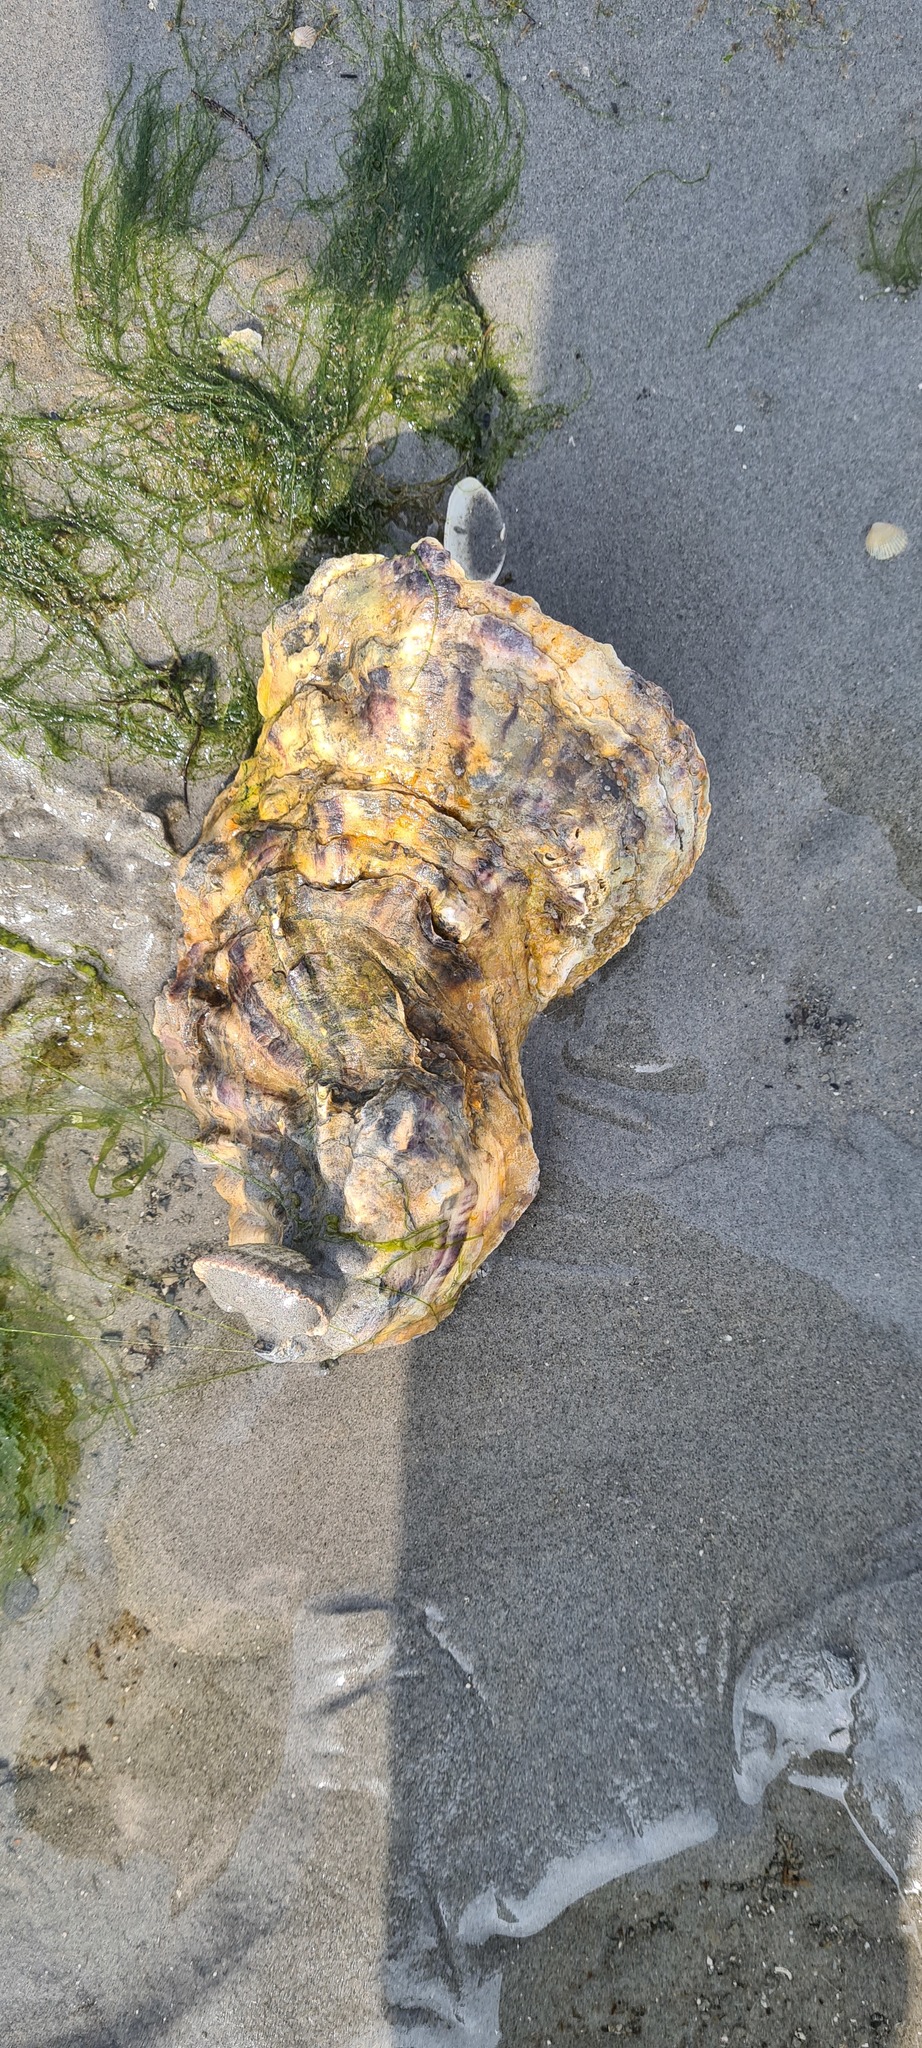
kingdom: Animalia
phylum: Mollusca
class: Bivalvia
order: Ostreida
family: Ostreidae
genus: Magallana
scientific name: Magallana gigas
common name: Pacific oyster
